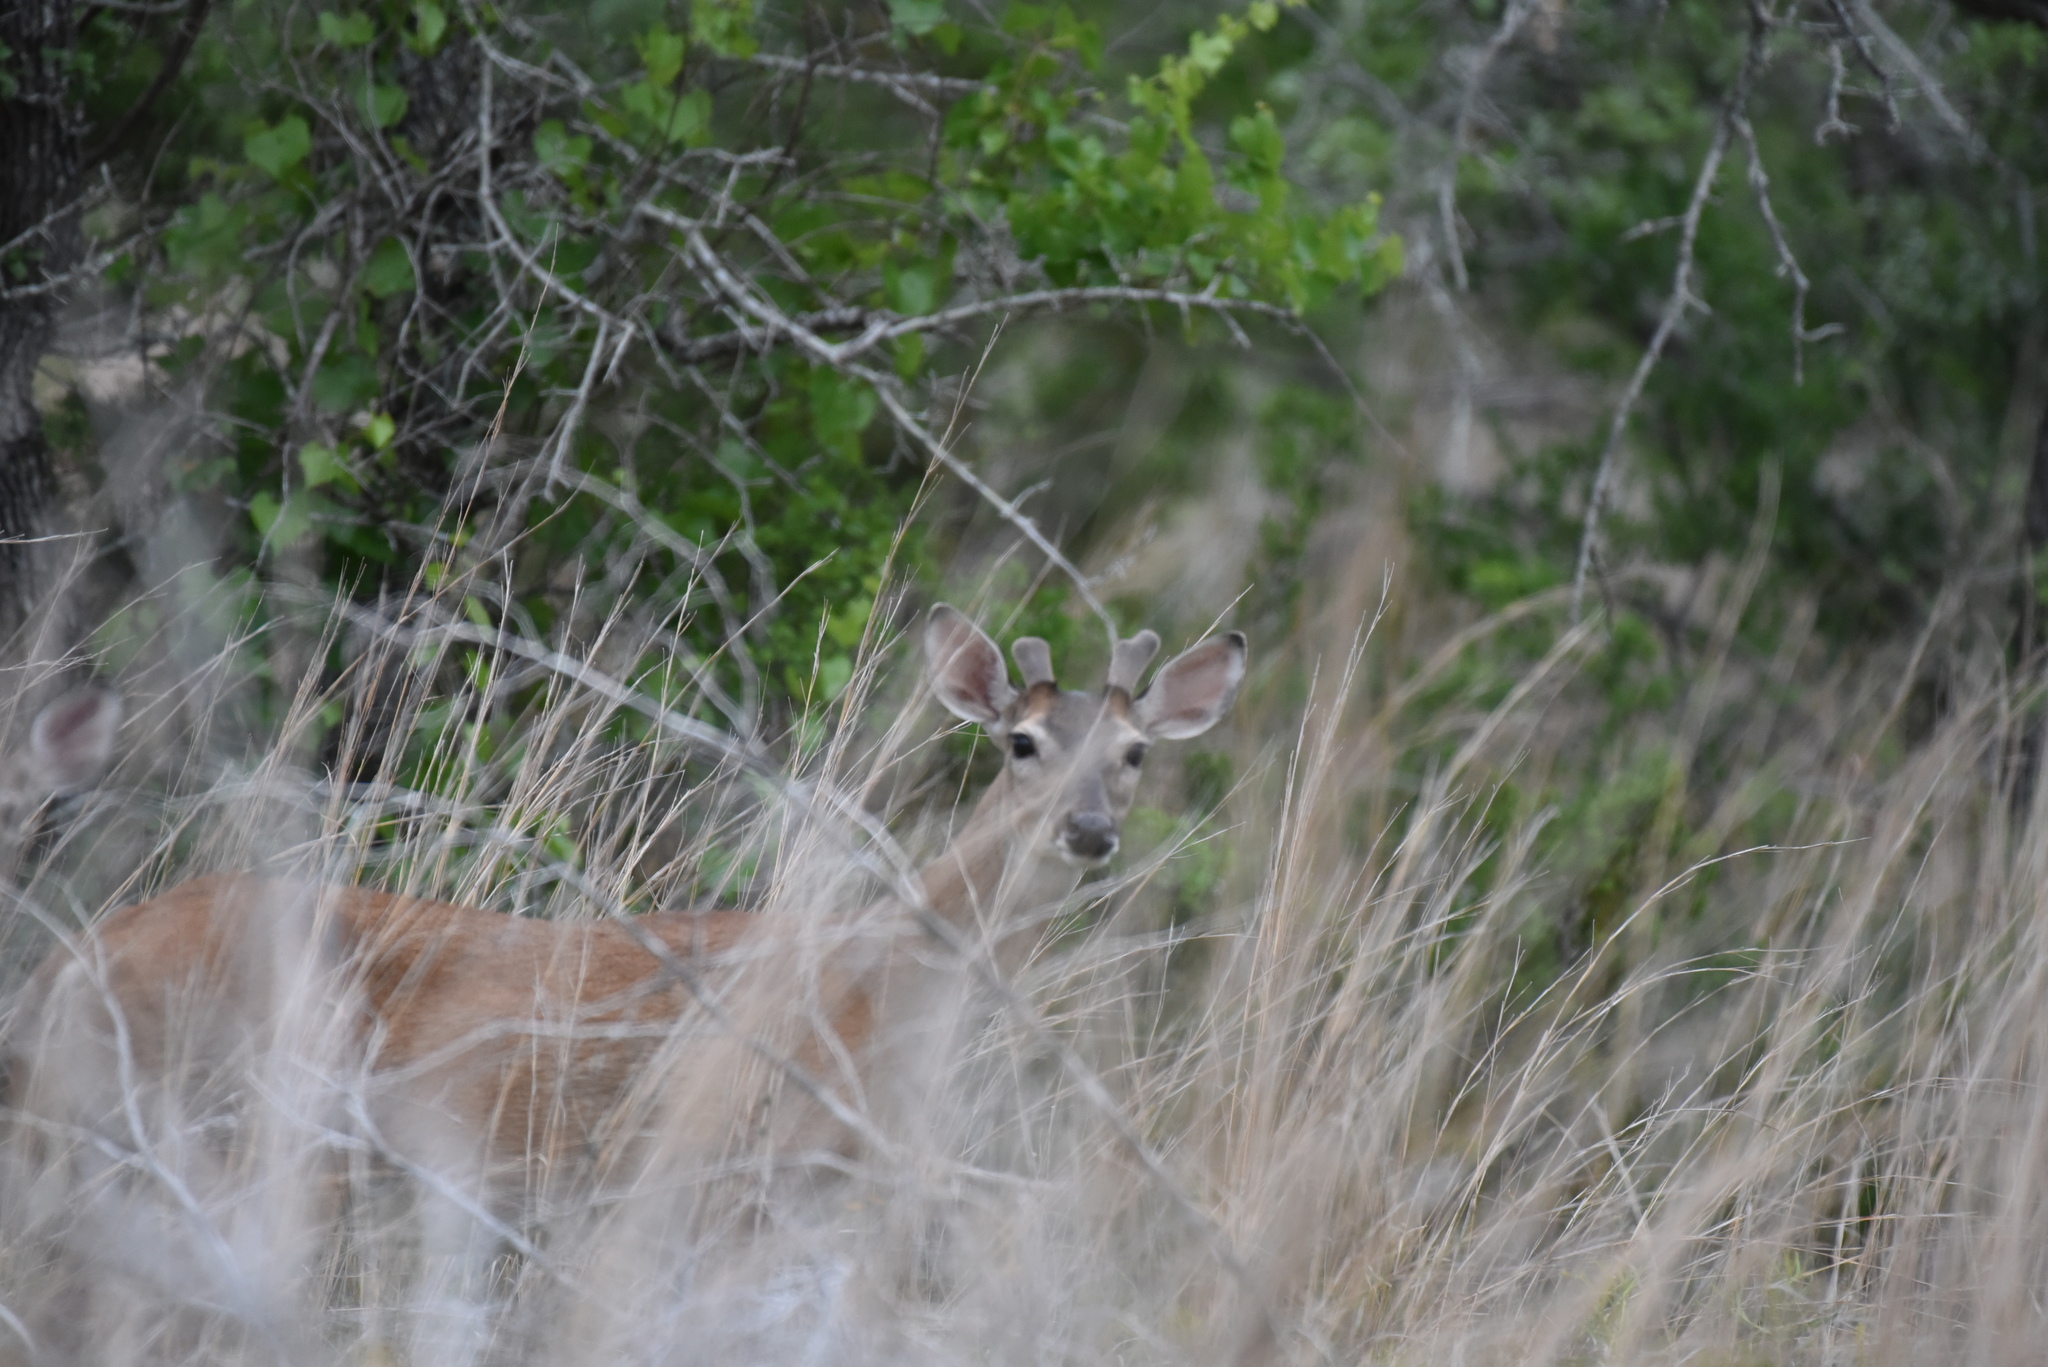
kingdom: Animalia
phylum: Chordata
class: Mammalia
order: Artiodactyla
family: Cervidae
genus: Odocoileus
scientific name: Odocoileus virginianus
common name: White-tailed deer
